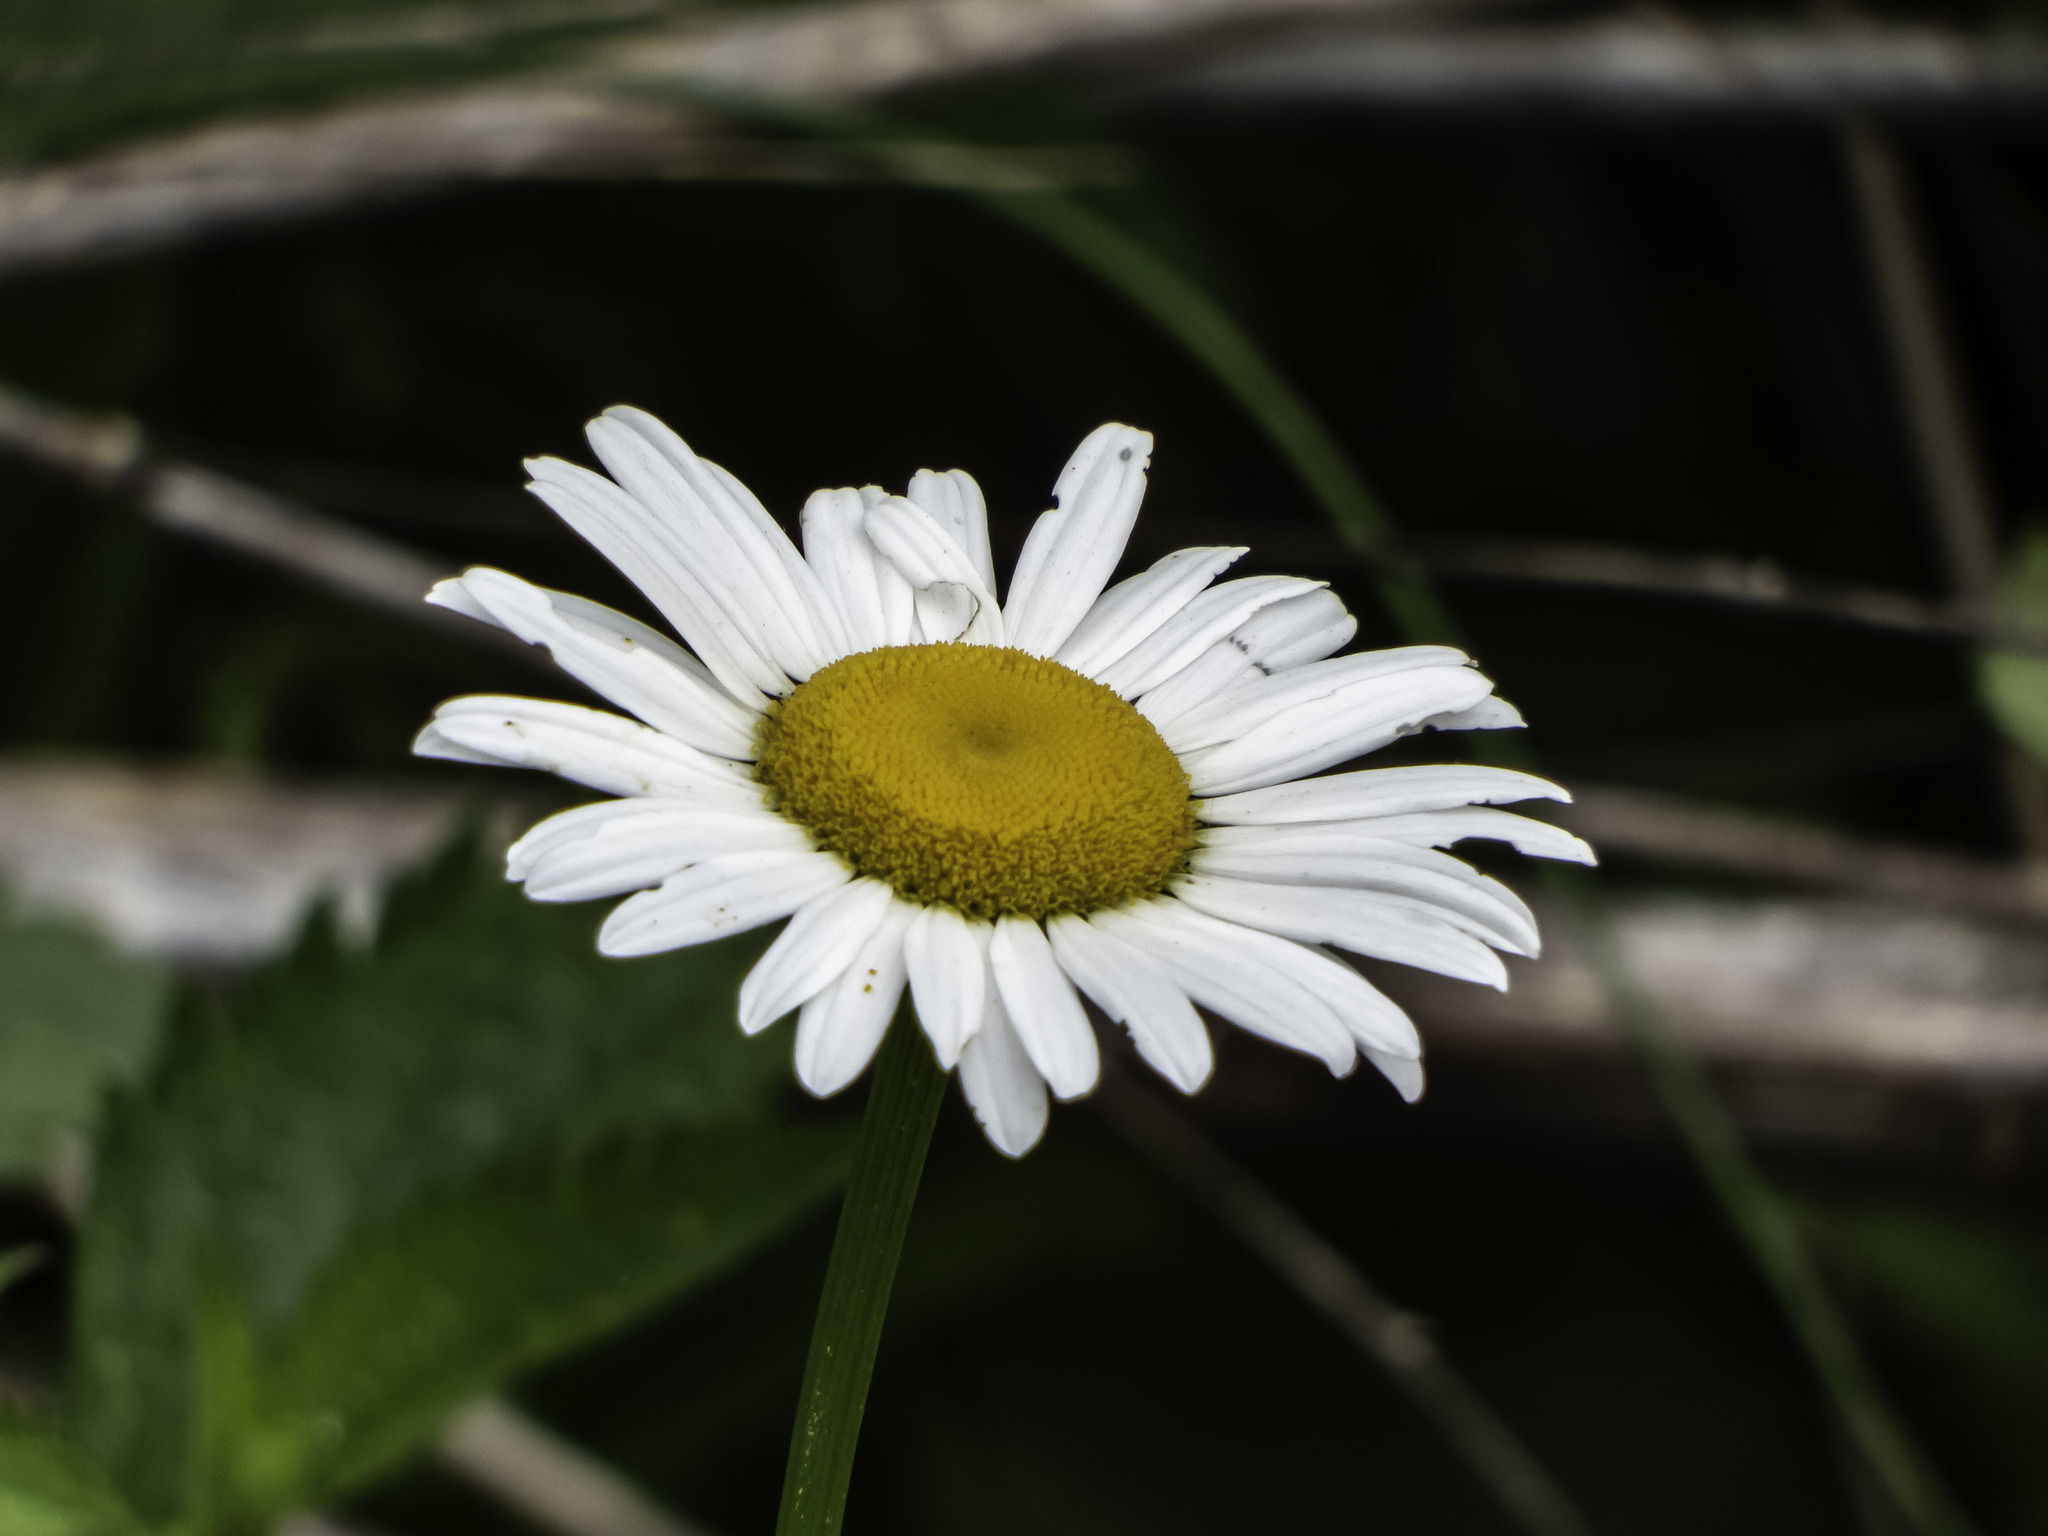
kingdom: Plantae
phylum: Tracheophyta
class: Magnoliopsida
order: Asterales
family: Asteraceae
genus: Leucanthemum
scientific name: Leucanthemum vulgare
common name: Oxeye daisy
